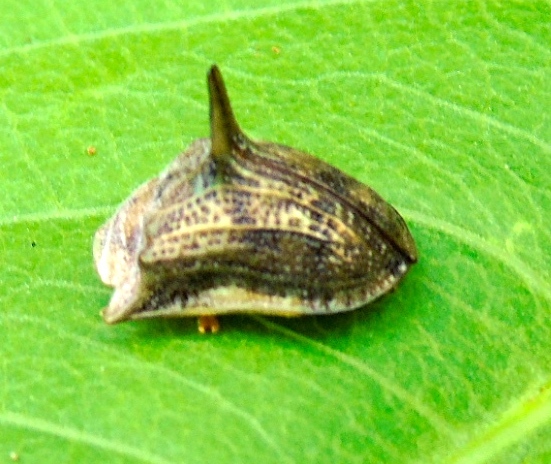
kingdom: Animalia
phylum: Arthropoda
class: Insecta
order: Coleoptera
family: Chrysomelidae
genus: Dorynota
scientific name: Dorynota aurita
